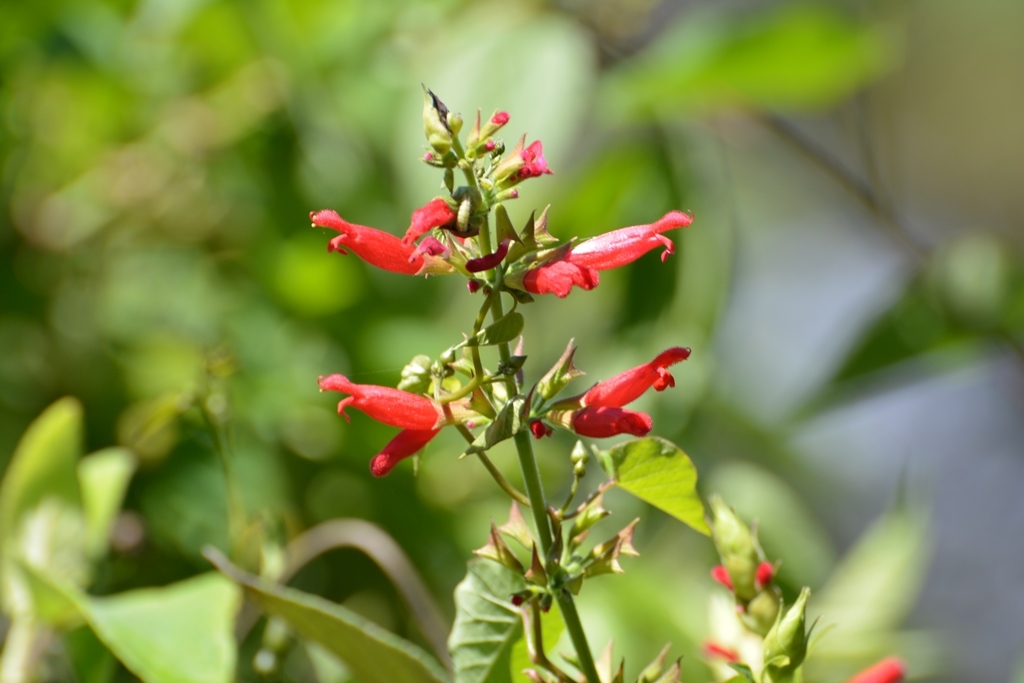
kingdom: Plantae
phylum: Tracheophyta
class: Magnoliopsida
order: Lamiales
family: Lamiaceae
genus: Salvia
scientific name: Salvia holwayi
